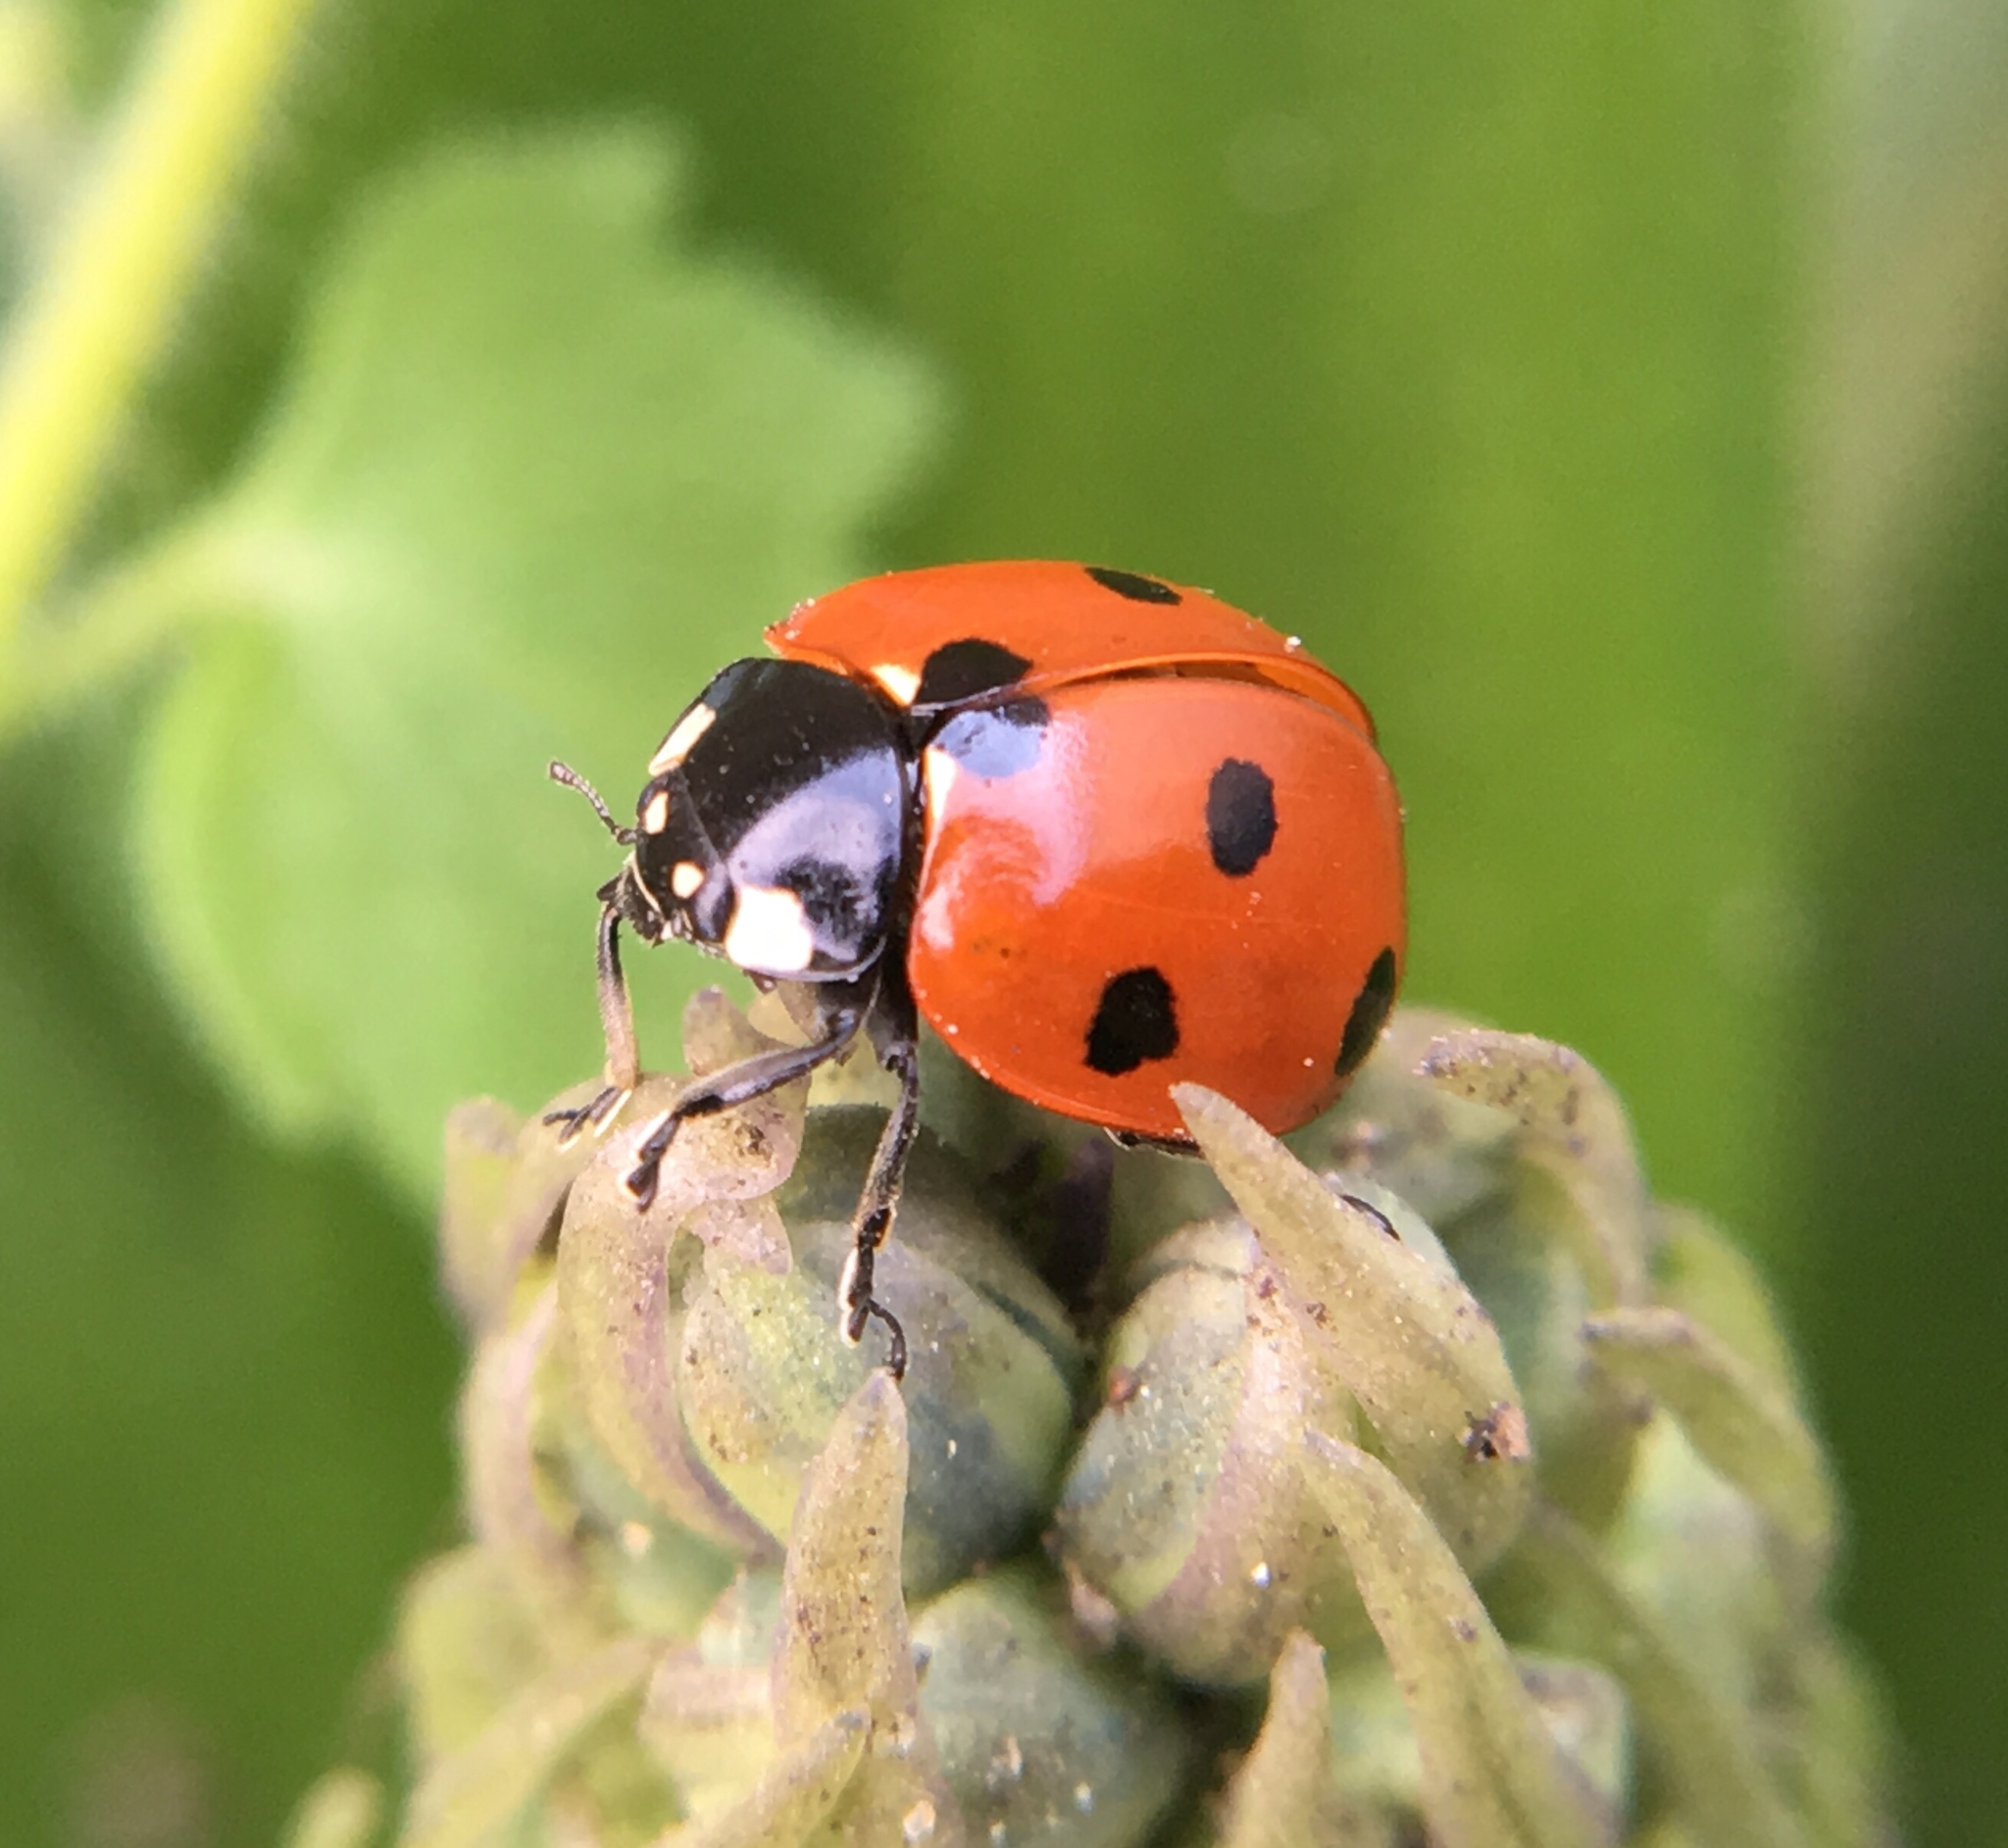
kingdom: Animalia
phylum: Arthropoda
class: Insecta
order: Coleoptera
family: Coccinellidae
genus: Coccinella
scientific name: Coccinella septempunctata
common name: Sevenspotted lady beetle
